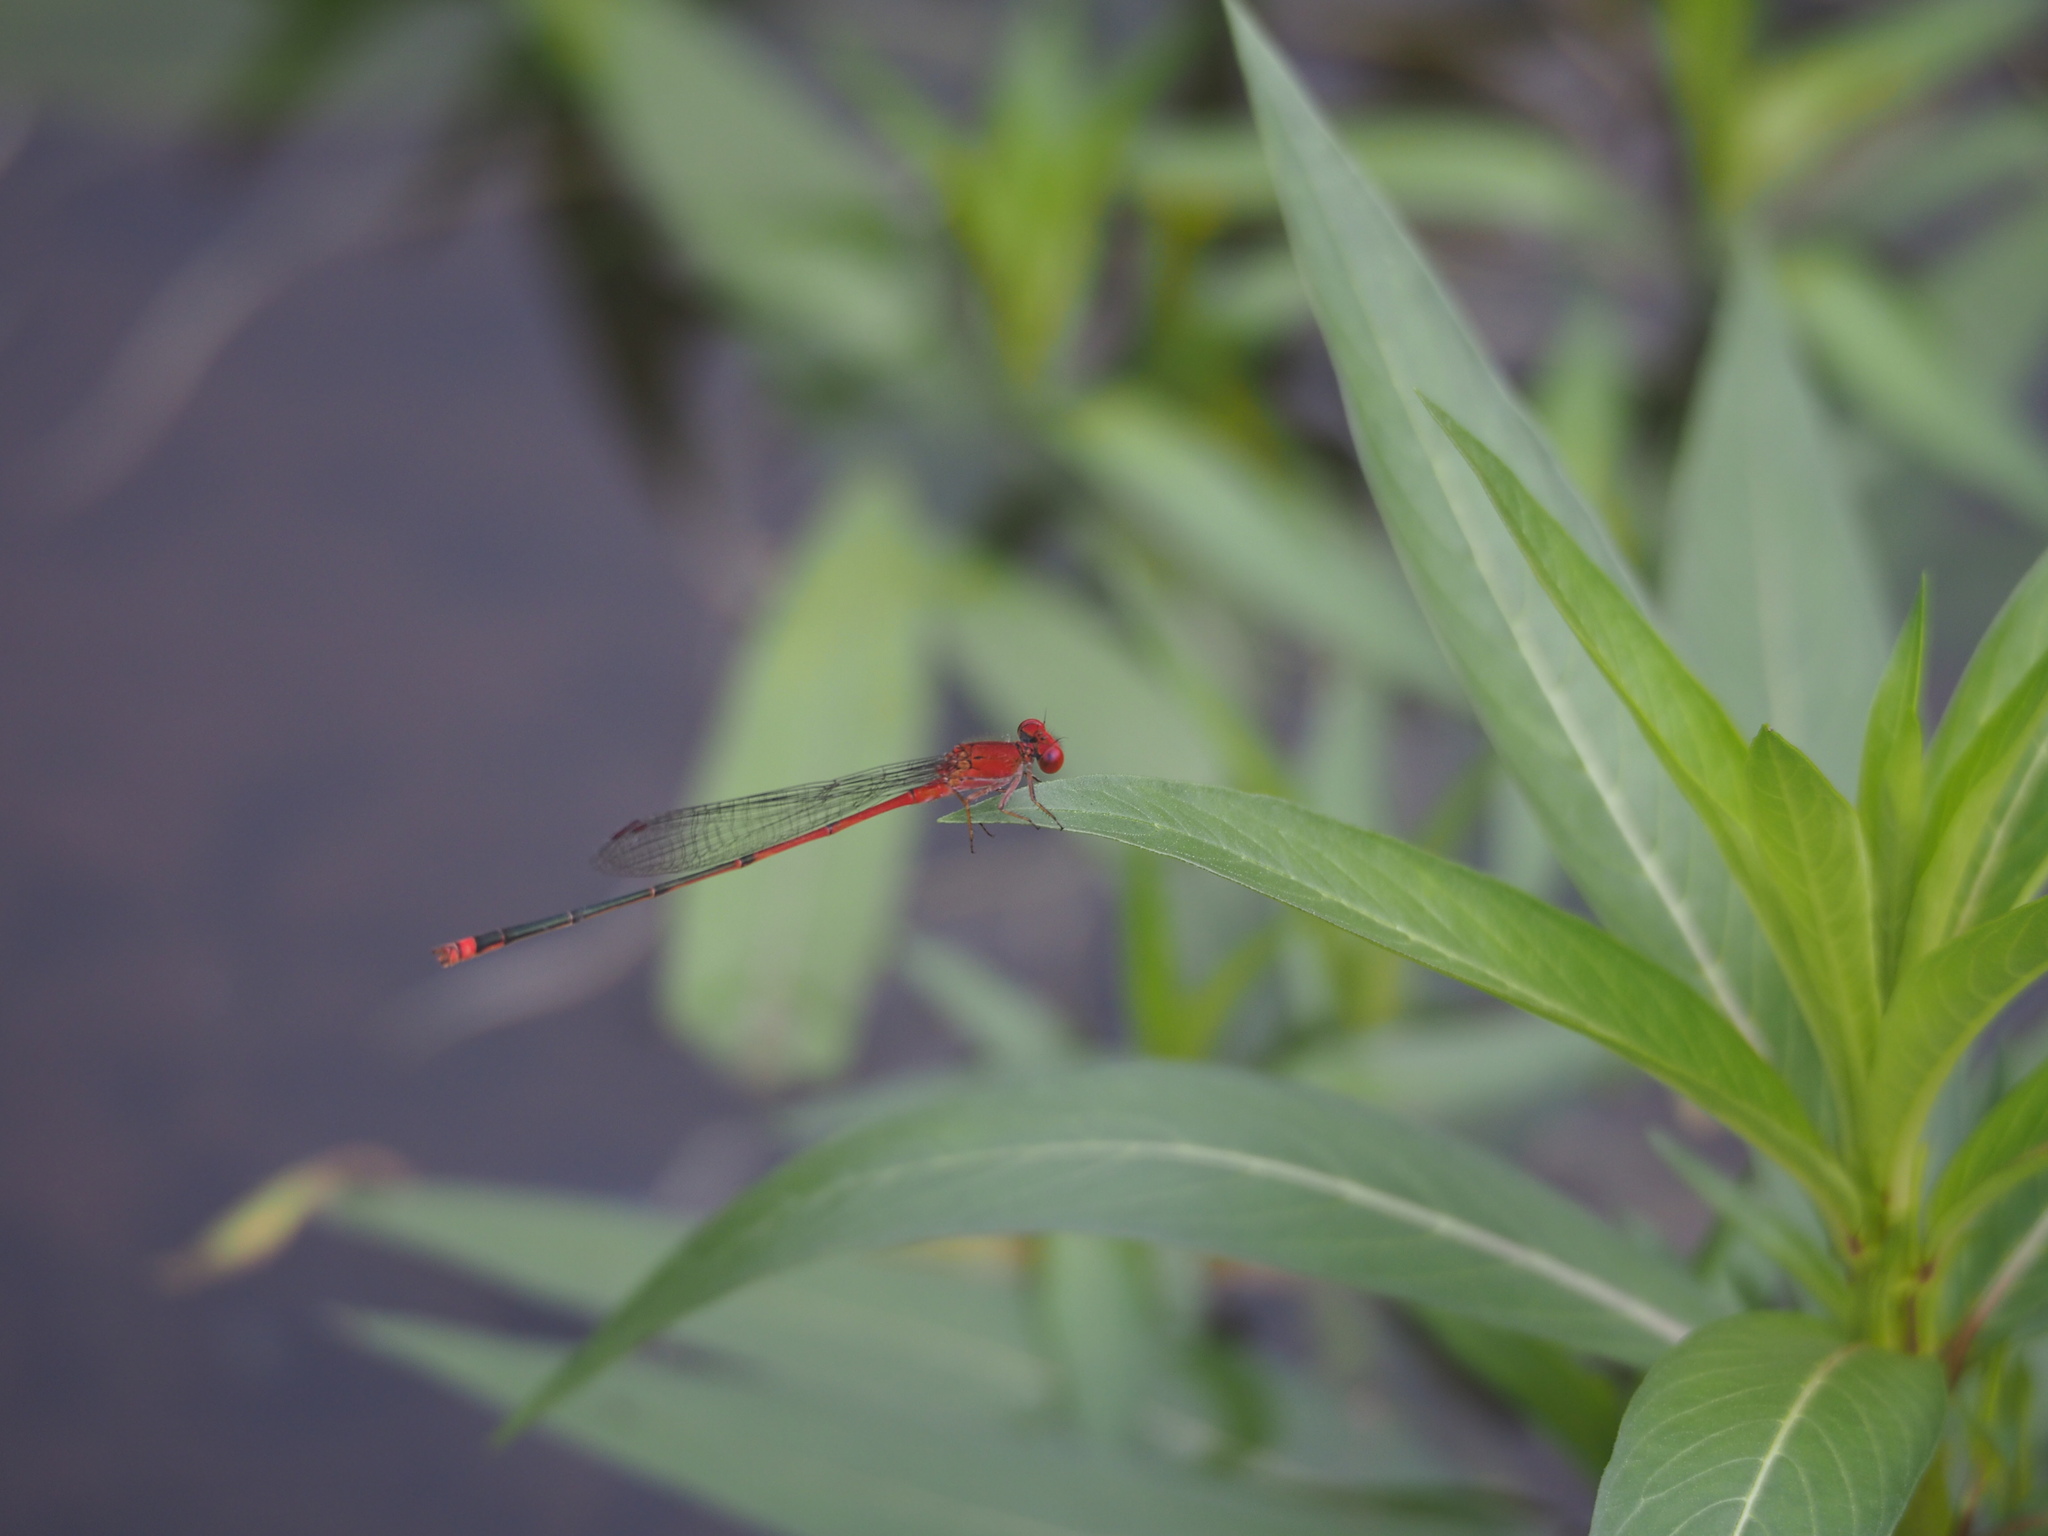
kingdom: Animalia
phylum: Arthropoda
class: Insecta
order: Odonata
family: Coenagrionidae
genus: Pseudagrion
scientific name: Pseudagrion pilidorsum
